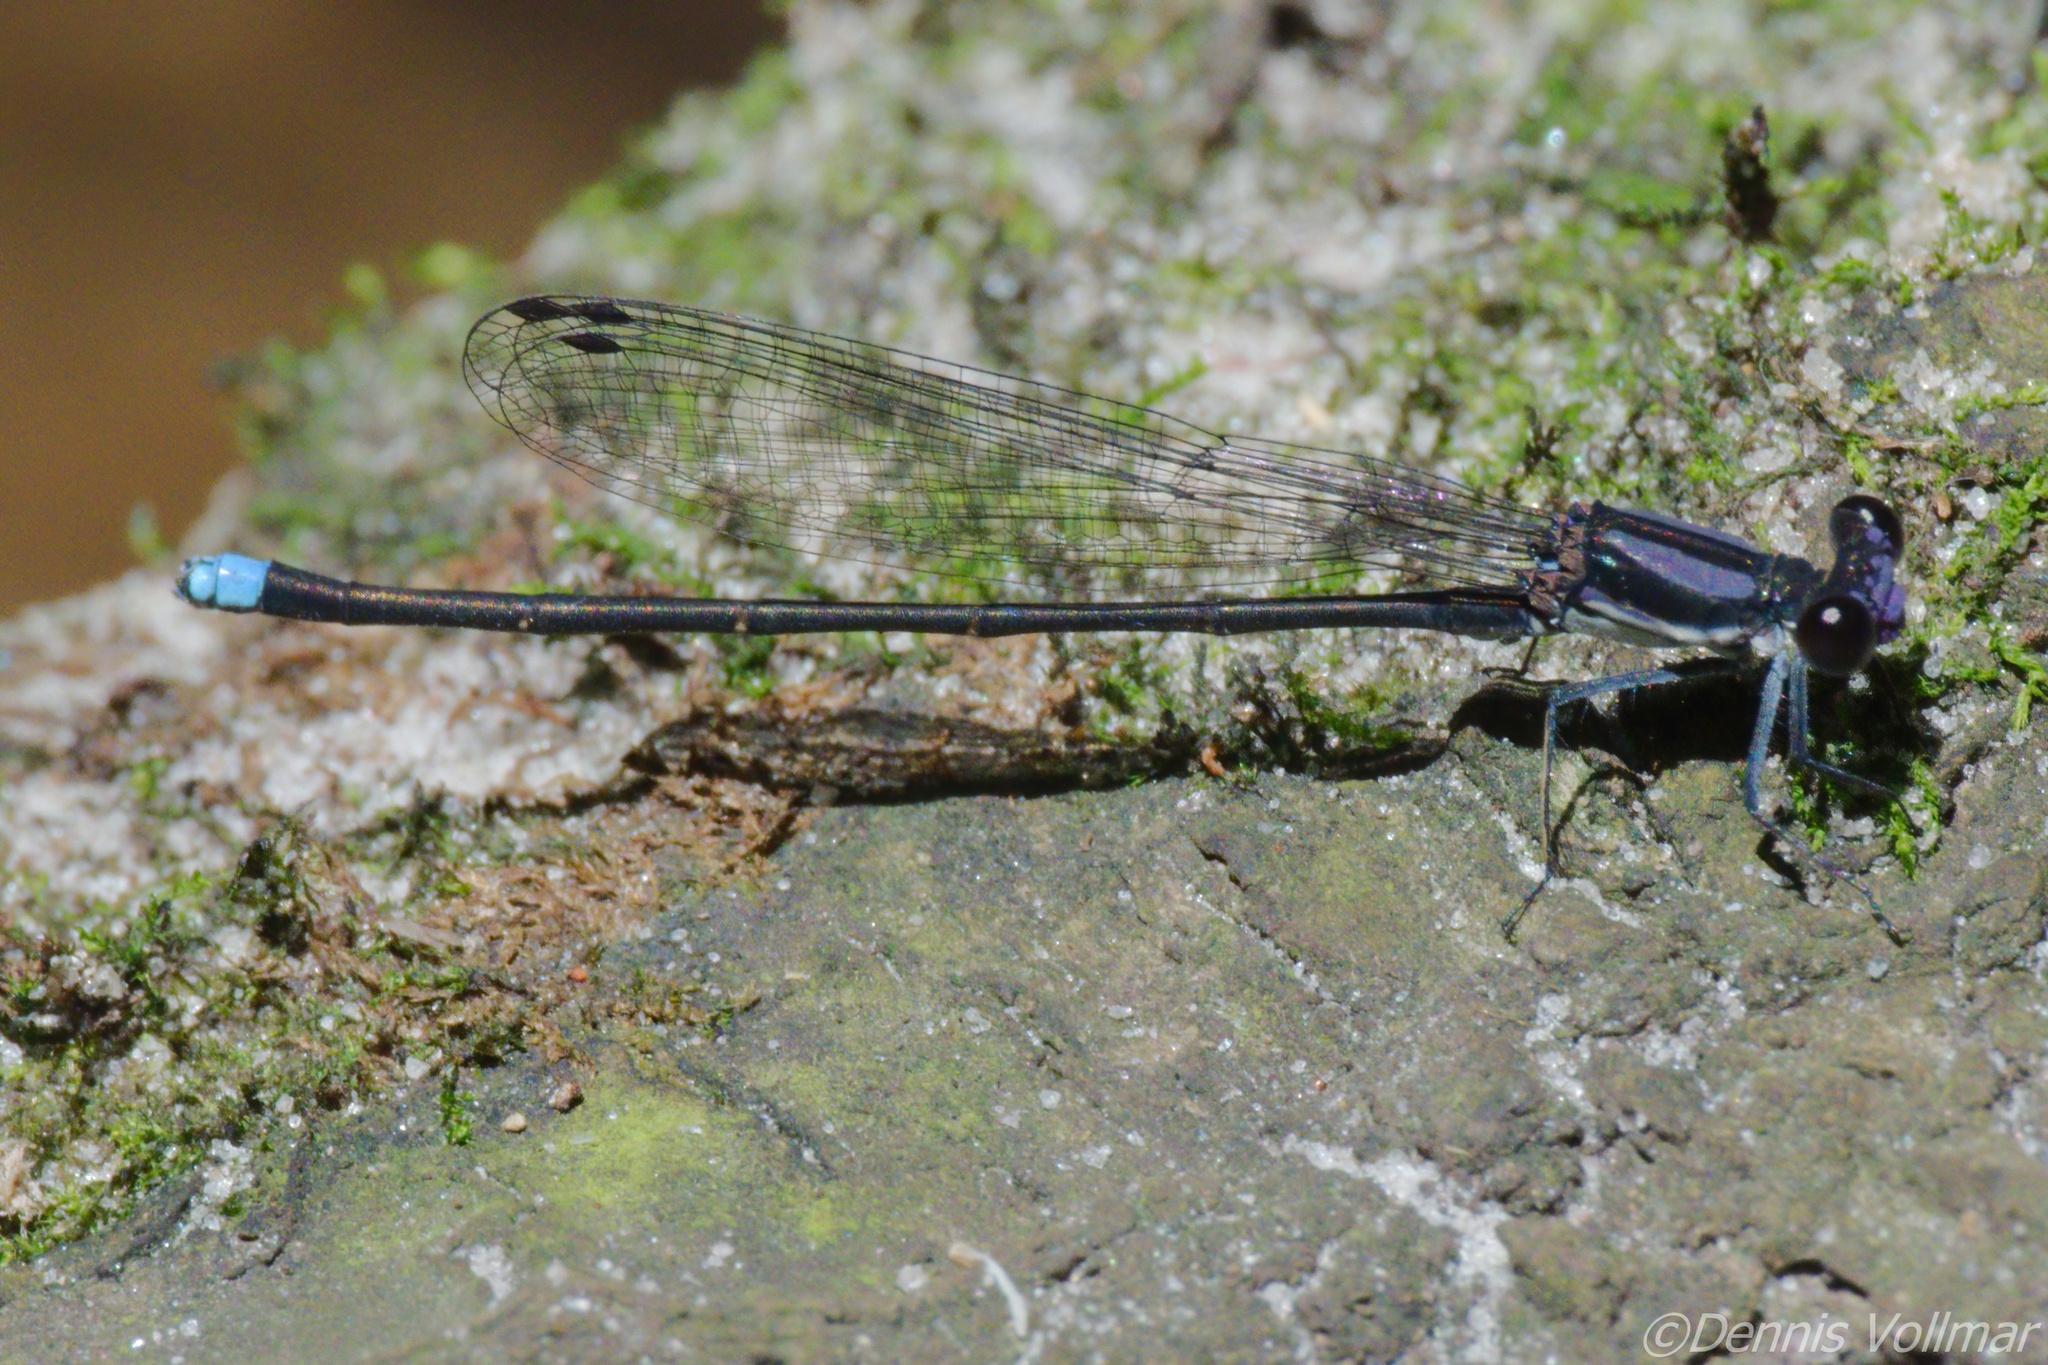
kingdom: Animalia
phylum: Arthropoda
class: Insecta
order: Odonata
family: Coenagrionidae
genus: Argia
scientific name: Argia tibialis
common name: Blue-tipped dancer
